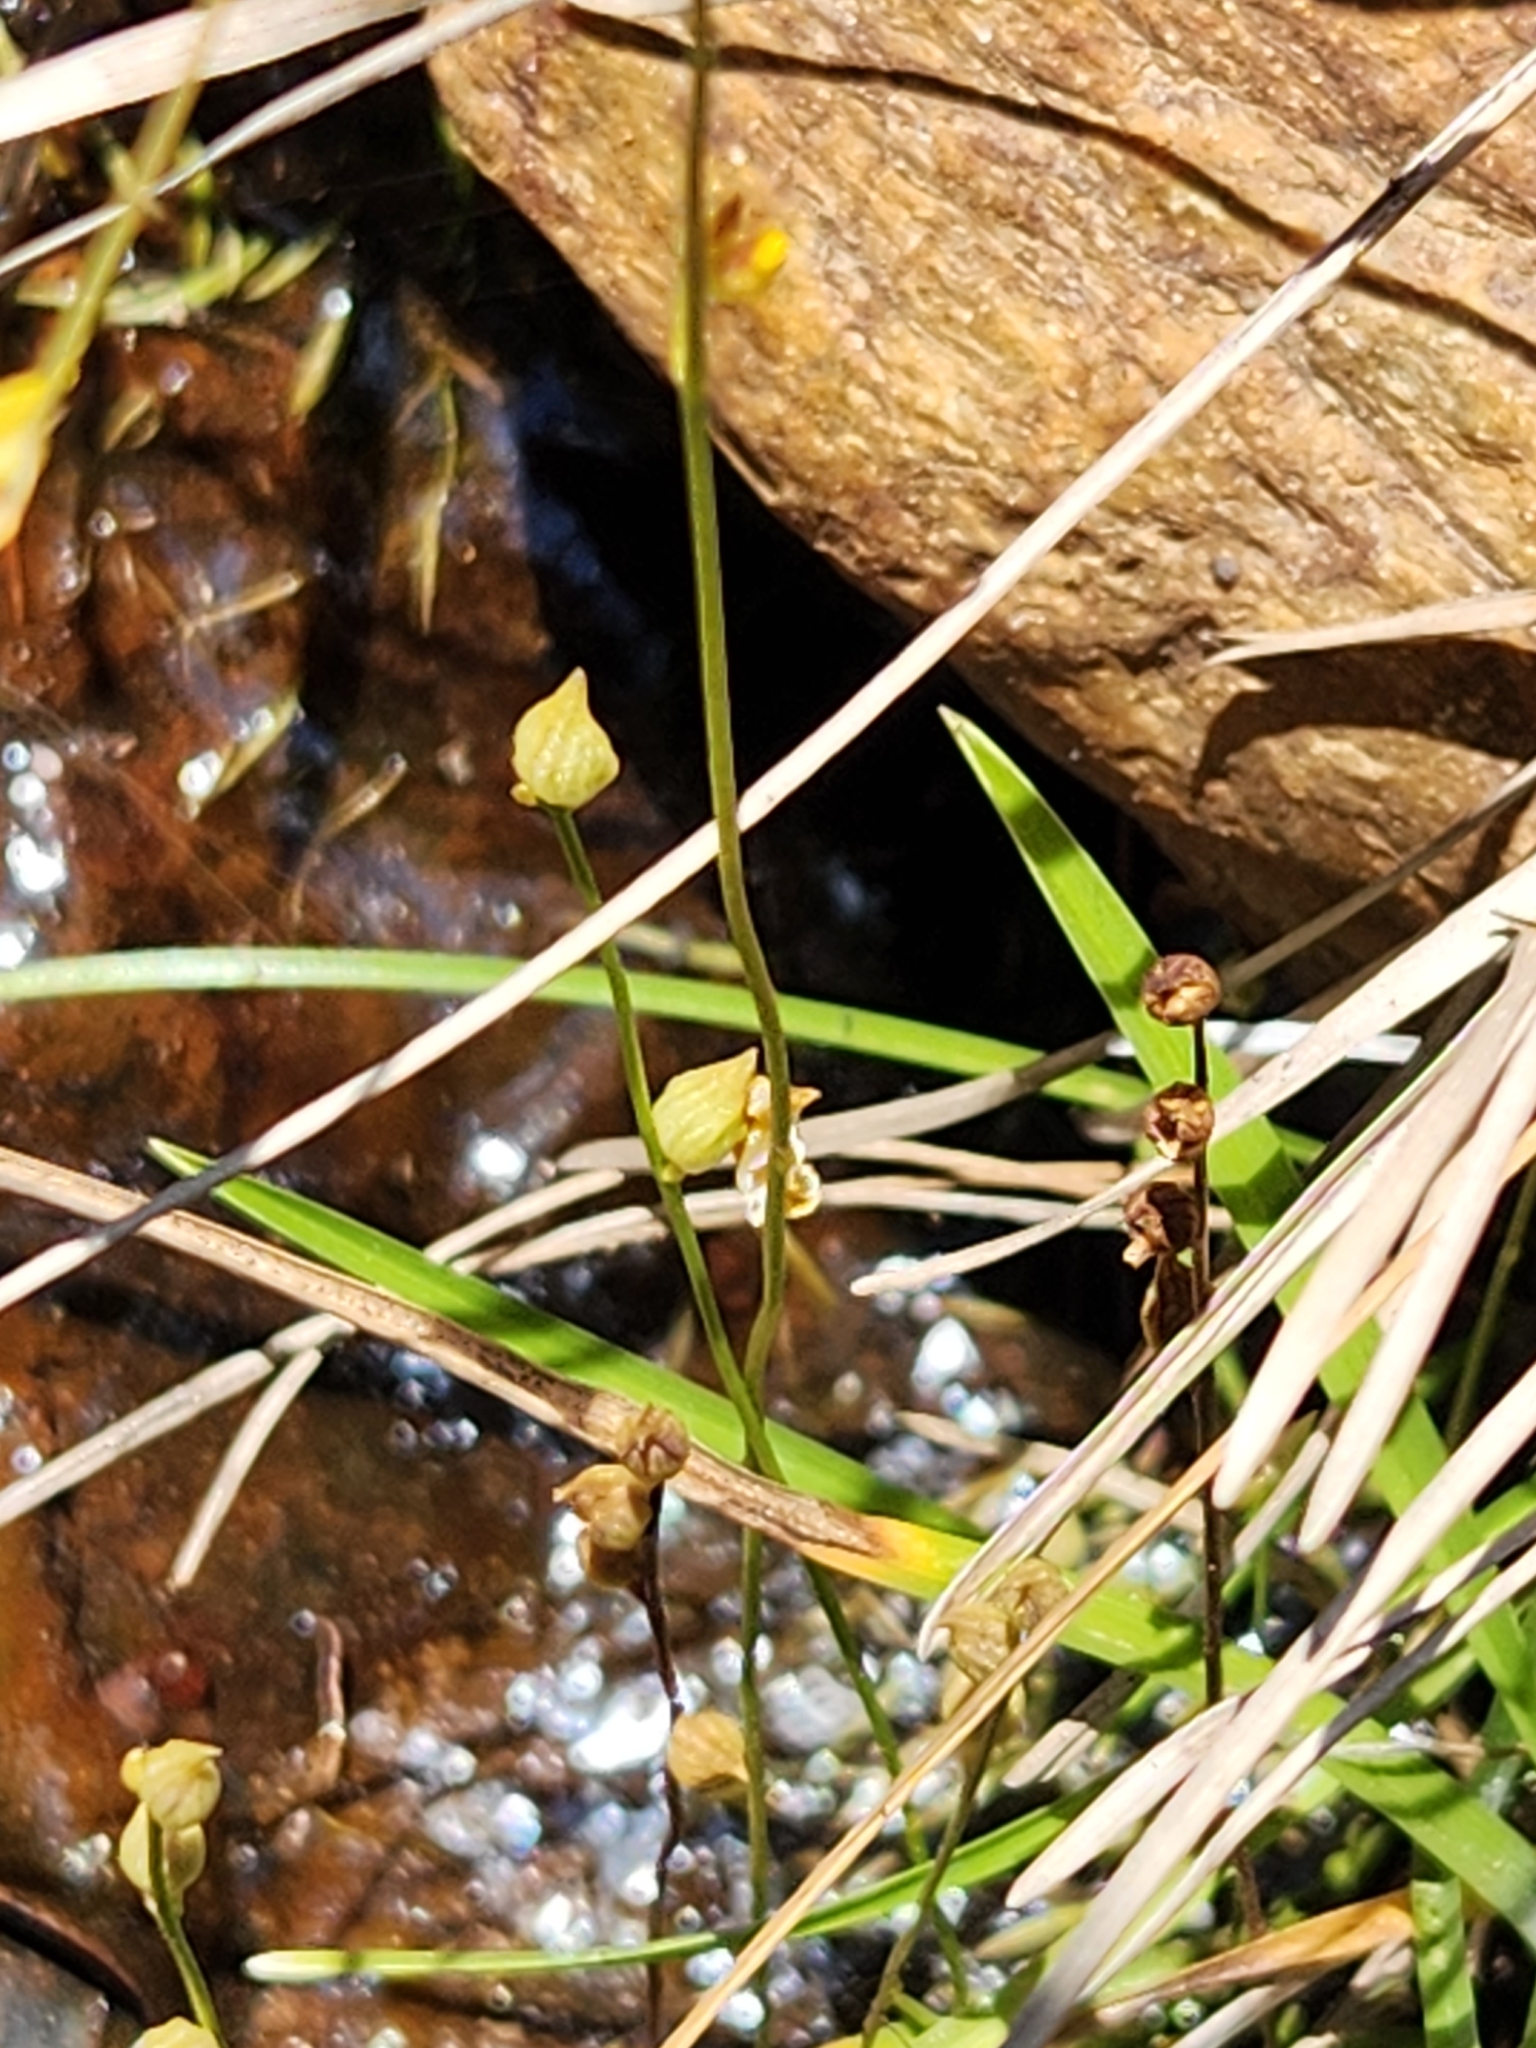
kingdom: Plantae
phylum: Tracheophyta
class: Magnoliopsida
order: Lamiales
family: Lentibulariaceae
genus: Utricularia
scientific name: Utricularia juncea
